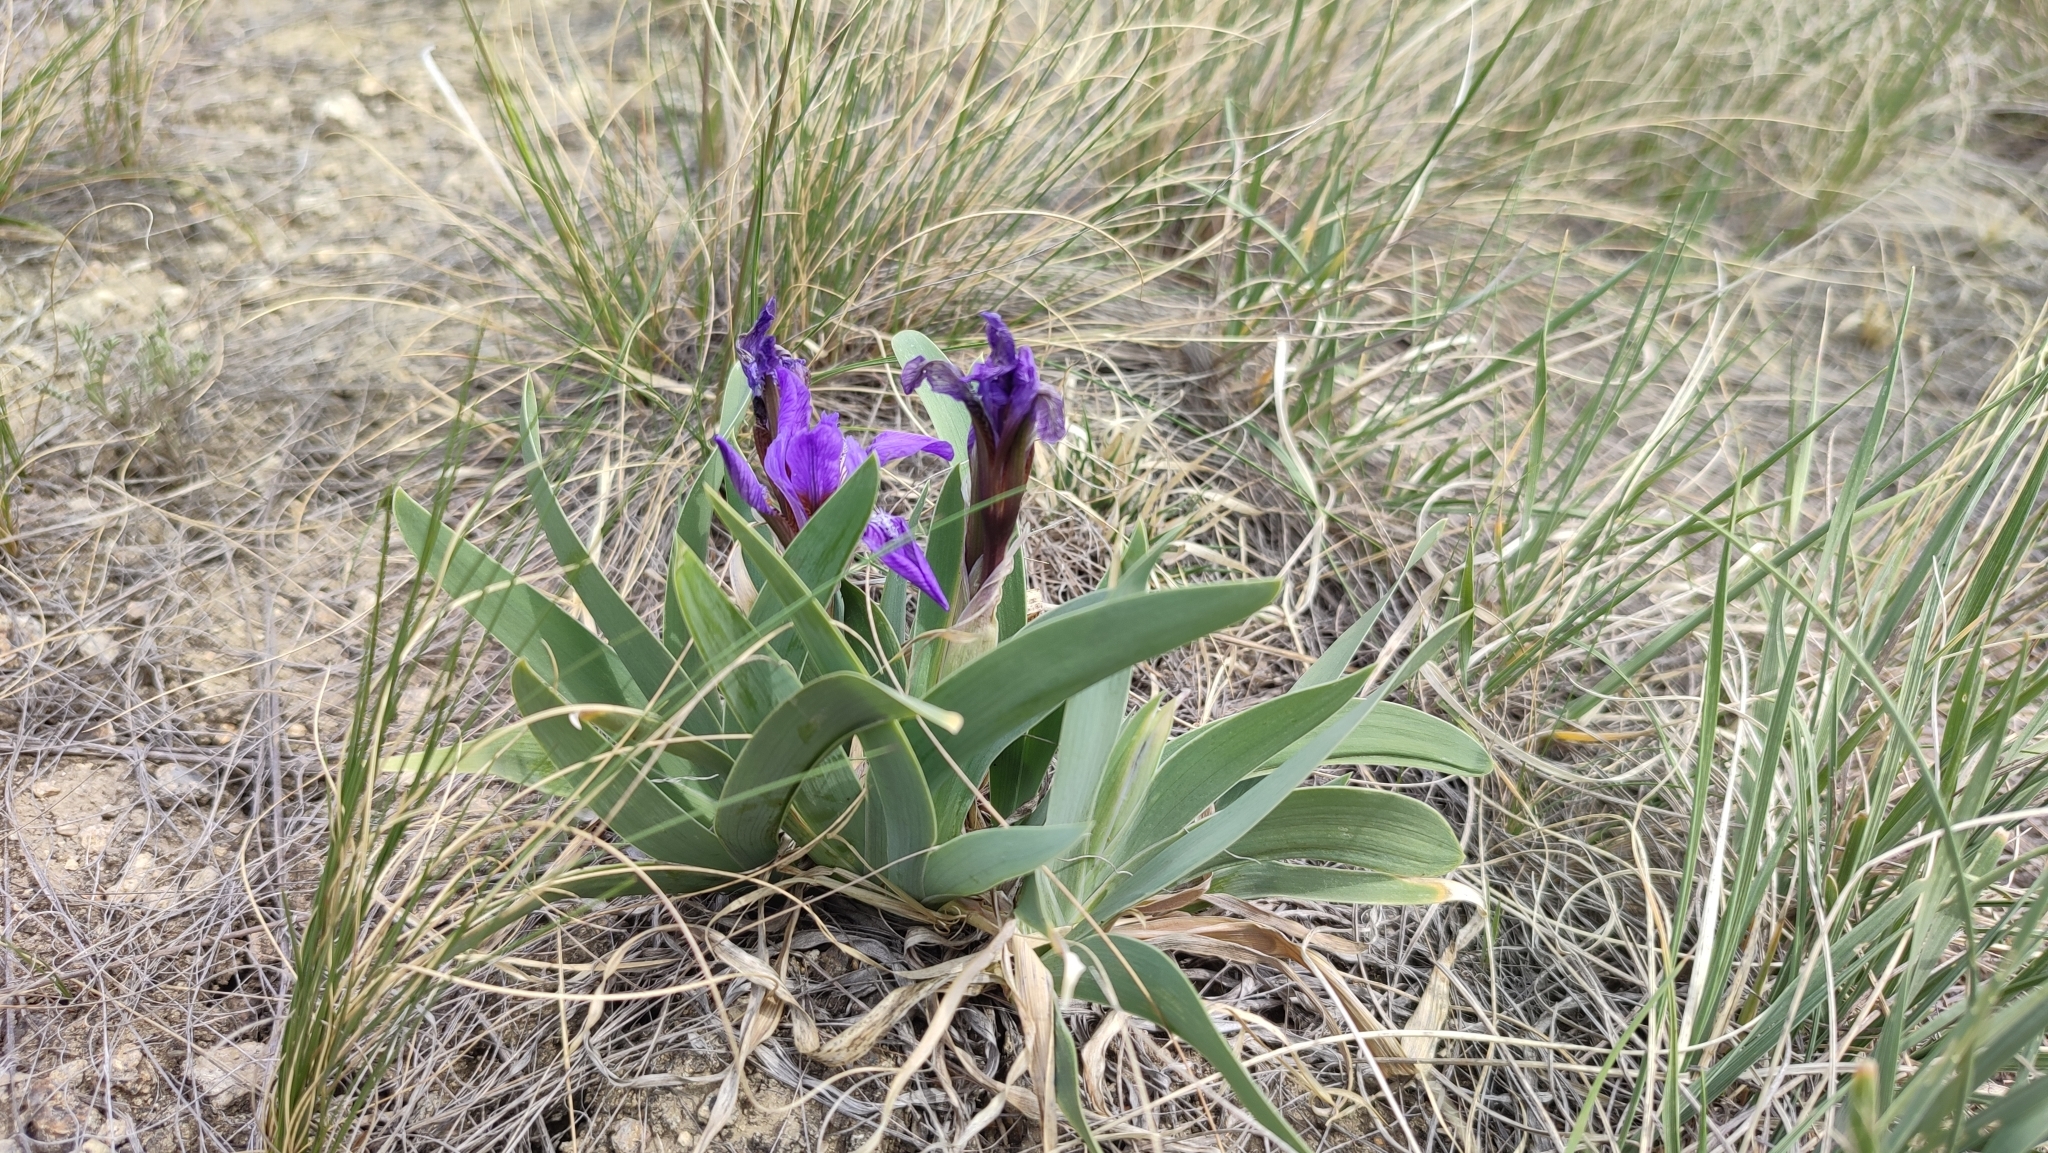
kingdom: Plantae
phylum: Tracheophyta
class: Liliopsida
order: Asparagales
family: Iridaceae
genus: Iris
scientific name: Iris glaucescens
